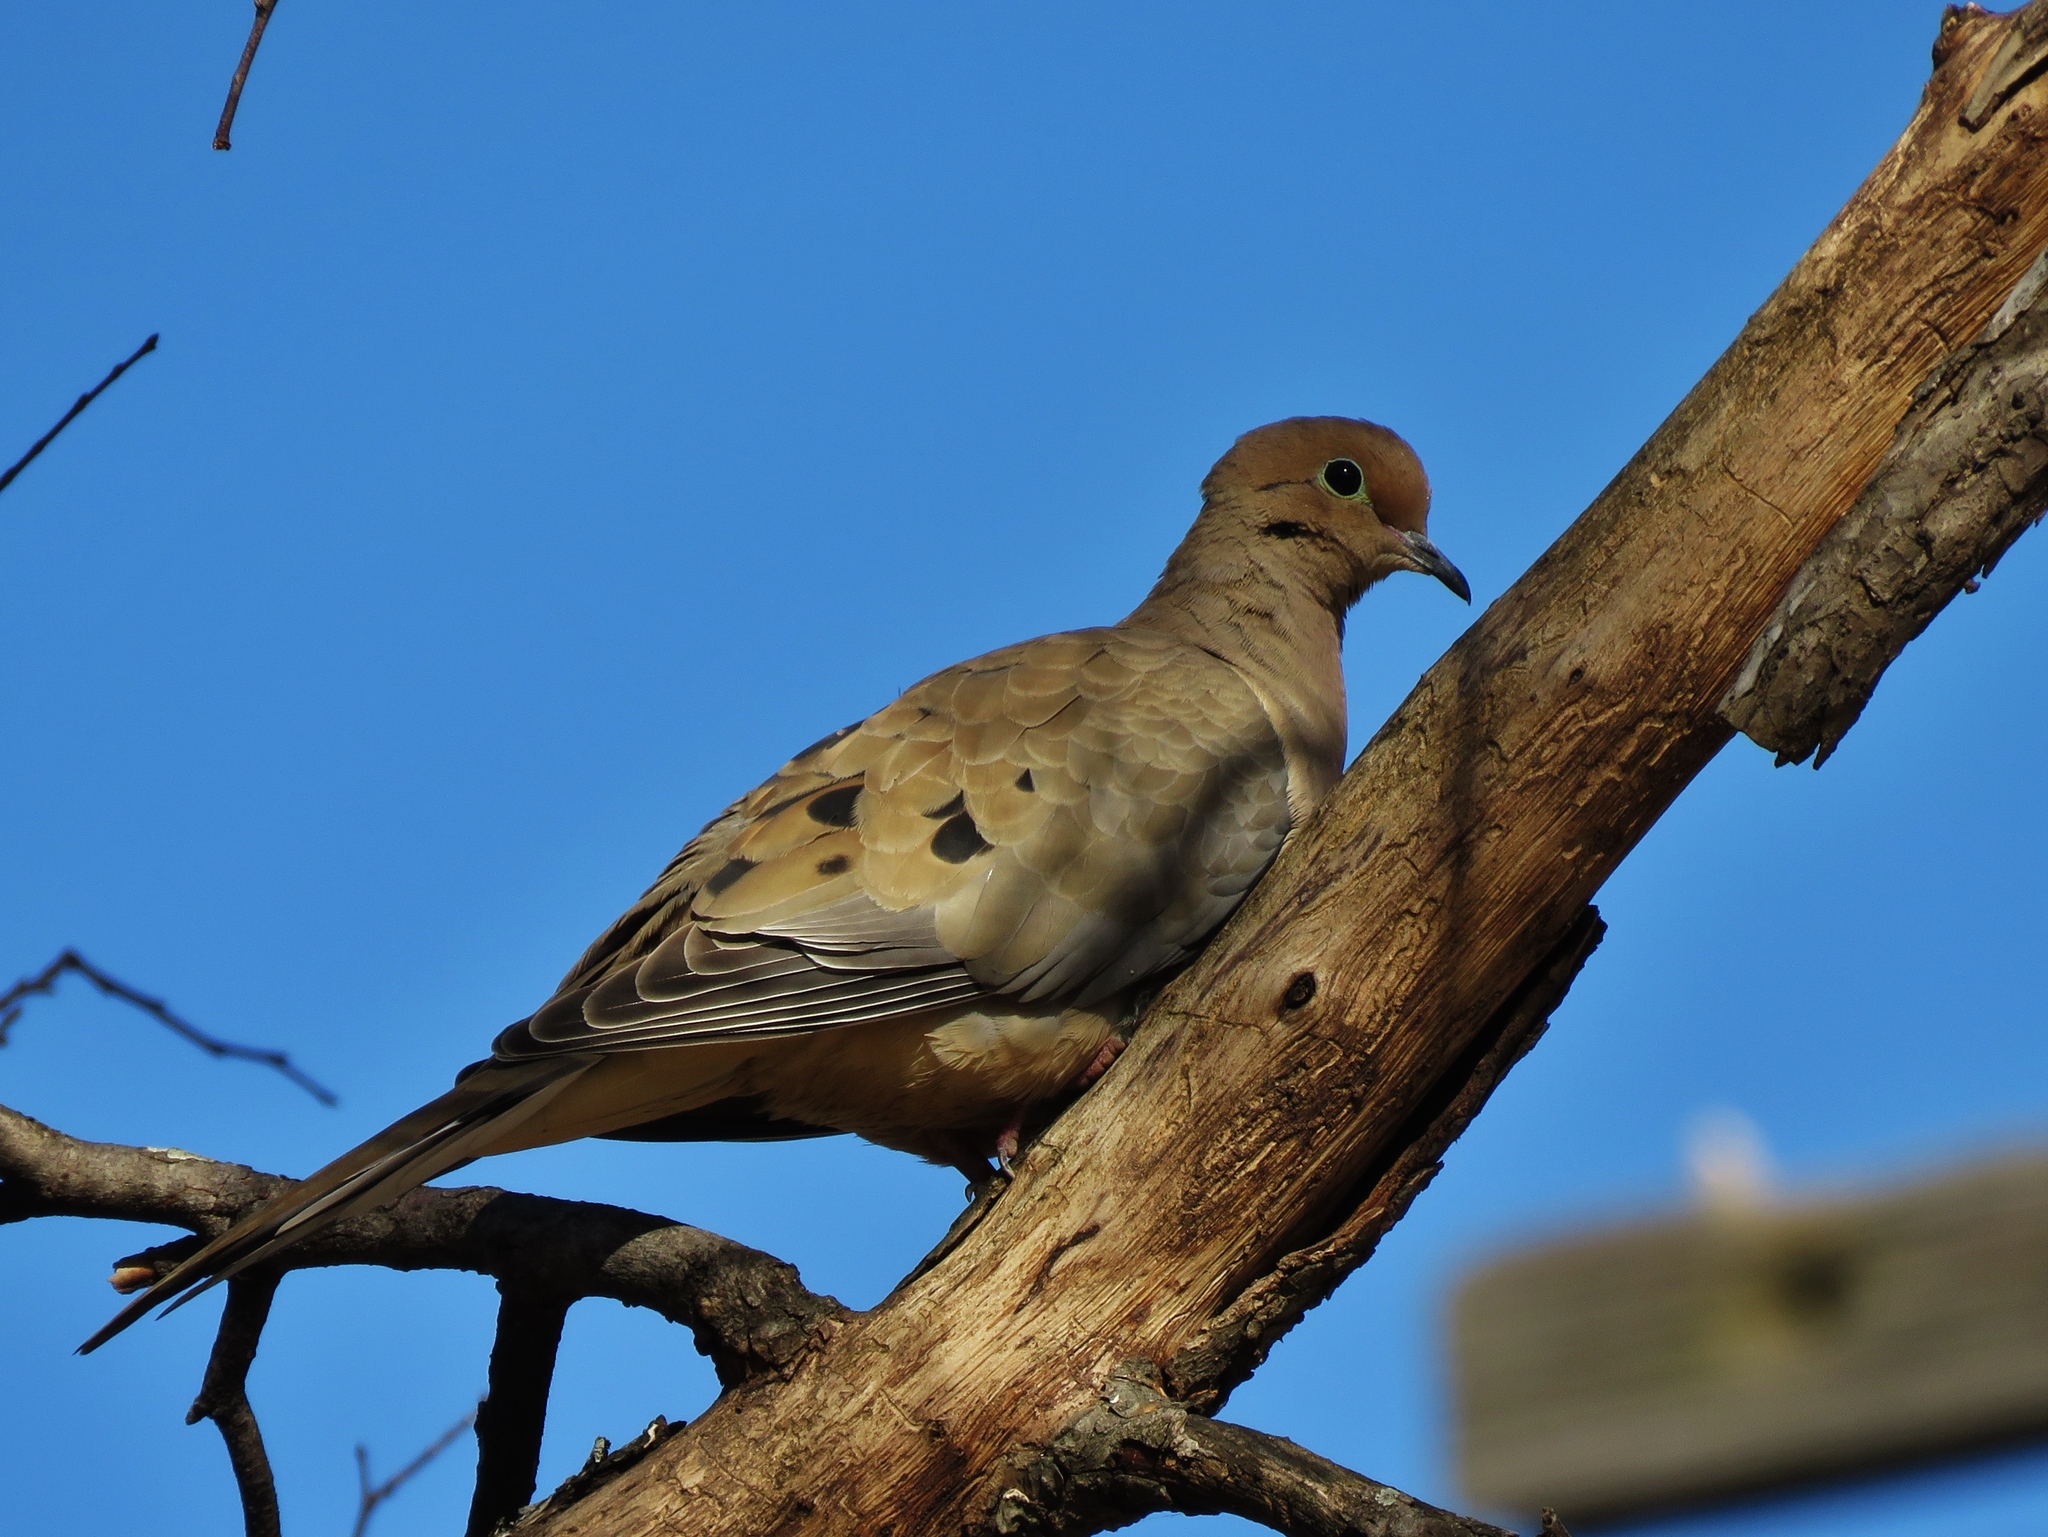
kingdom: Animalia
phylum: Chordata
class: Aves
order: Columbiformes
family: Columbidae
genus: Zenaida
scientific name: Zenaida macroura
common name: Mourning dove
